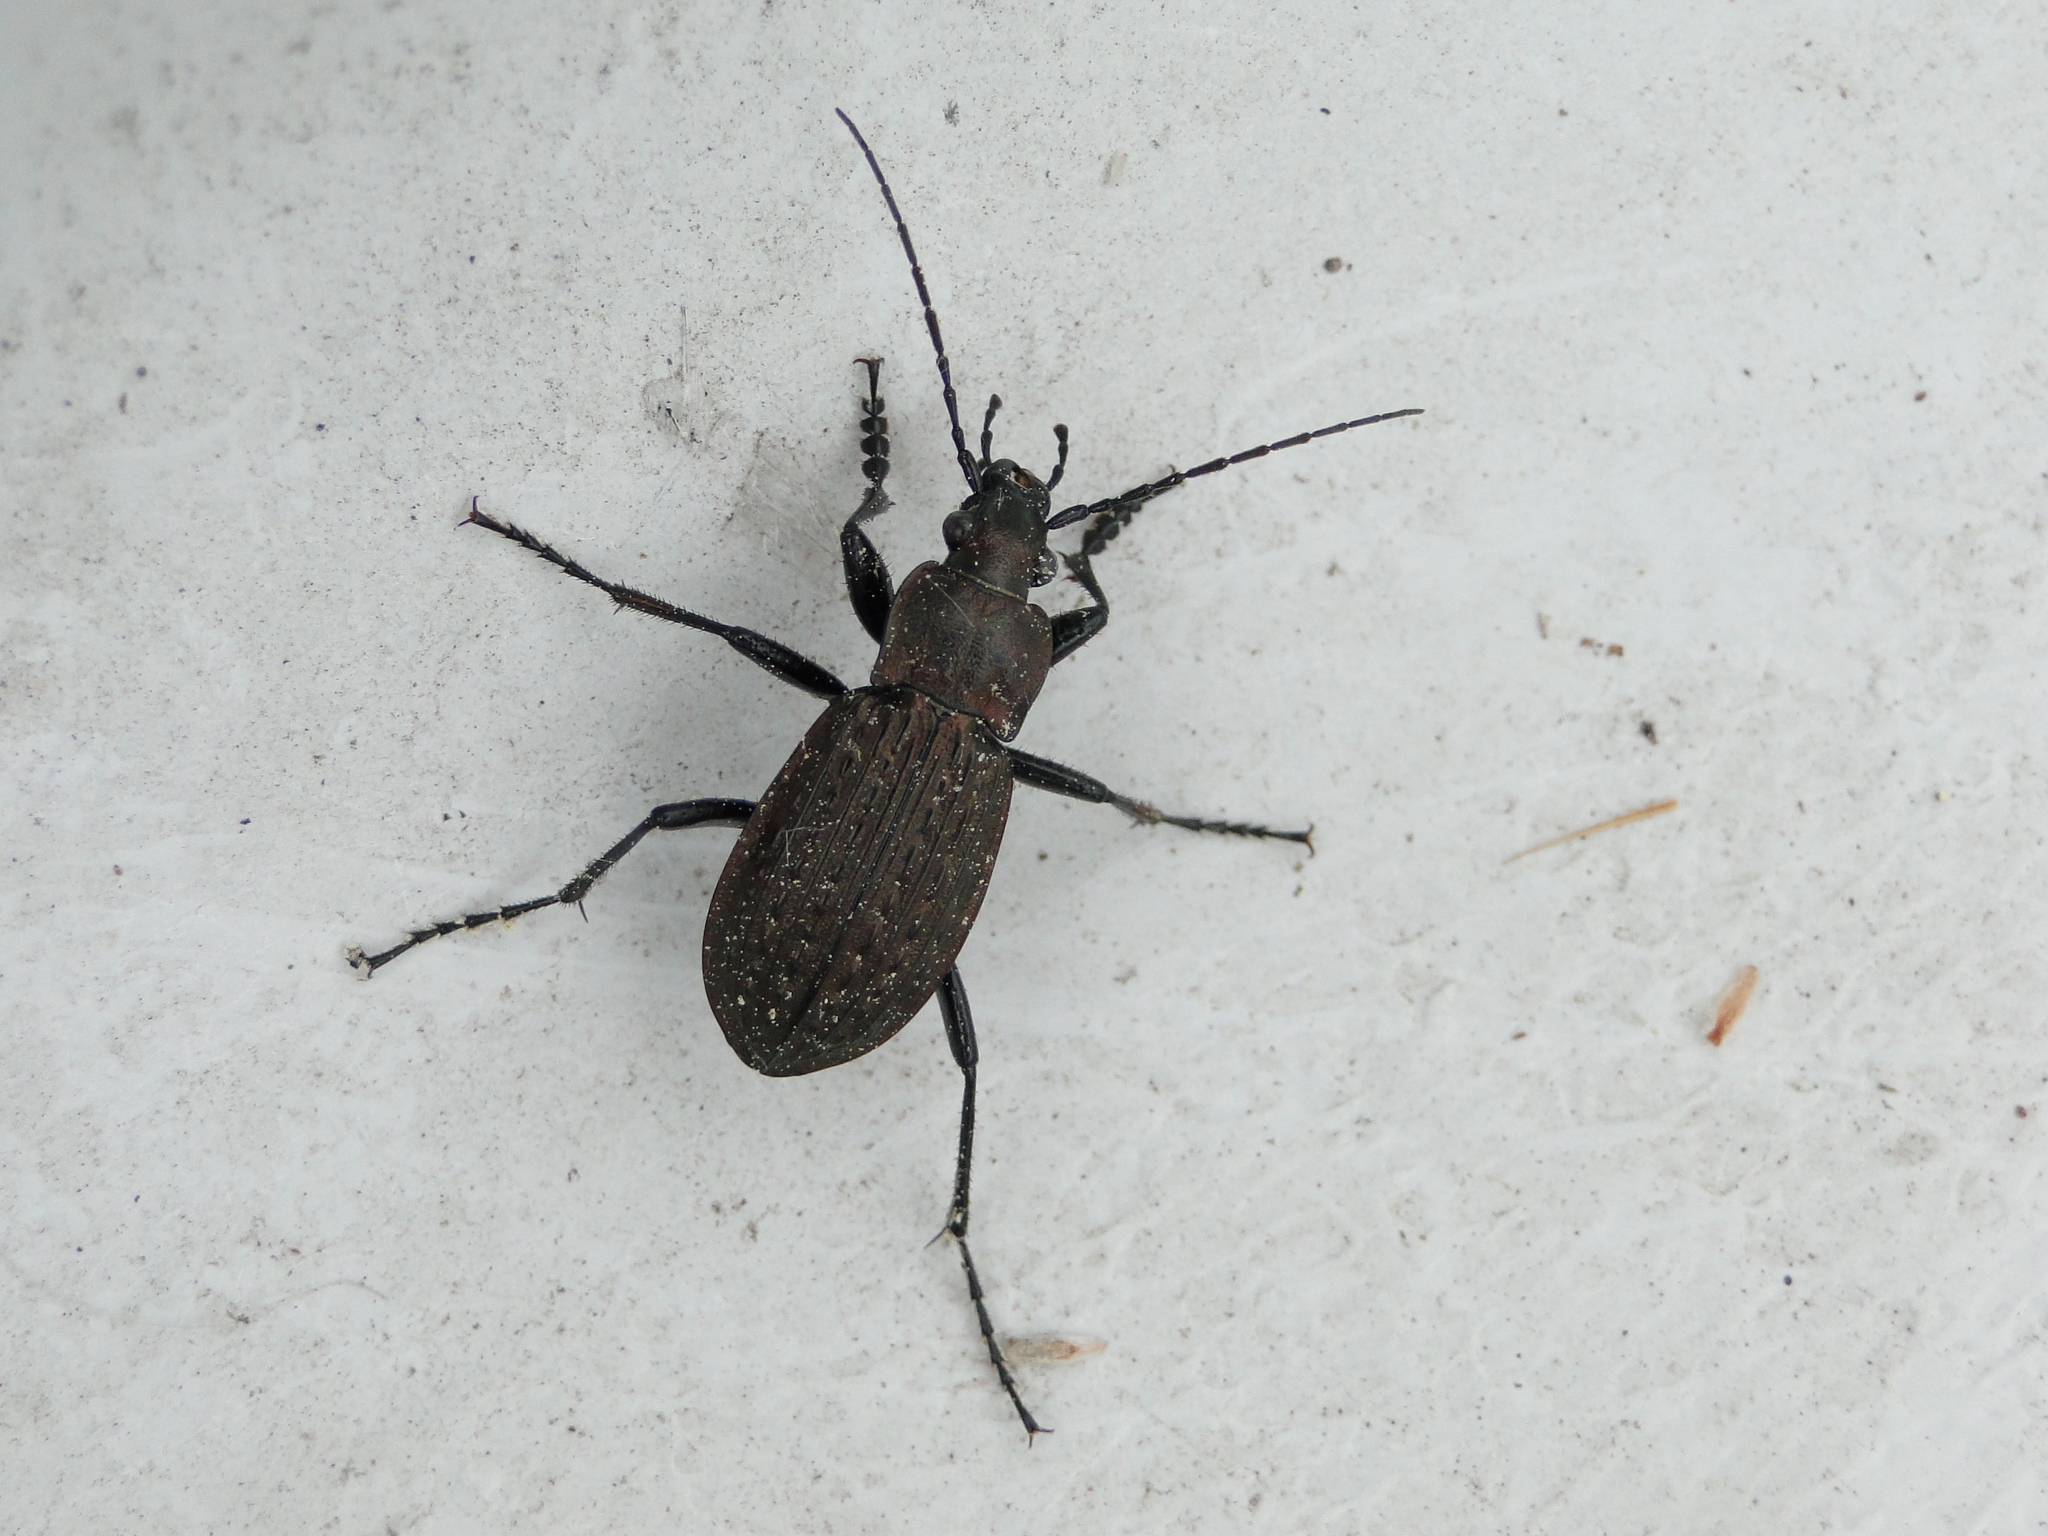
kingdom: Animalia
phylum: Arthropoda
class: Insecta
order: Coleoptera
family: Carabidae
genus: Carabus
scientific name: Carabus granulatus
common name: Granulate ground beetle
